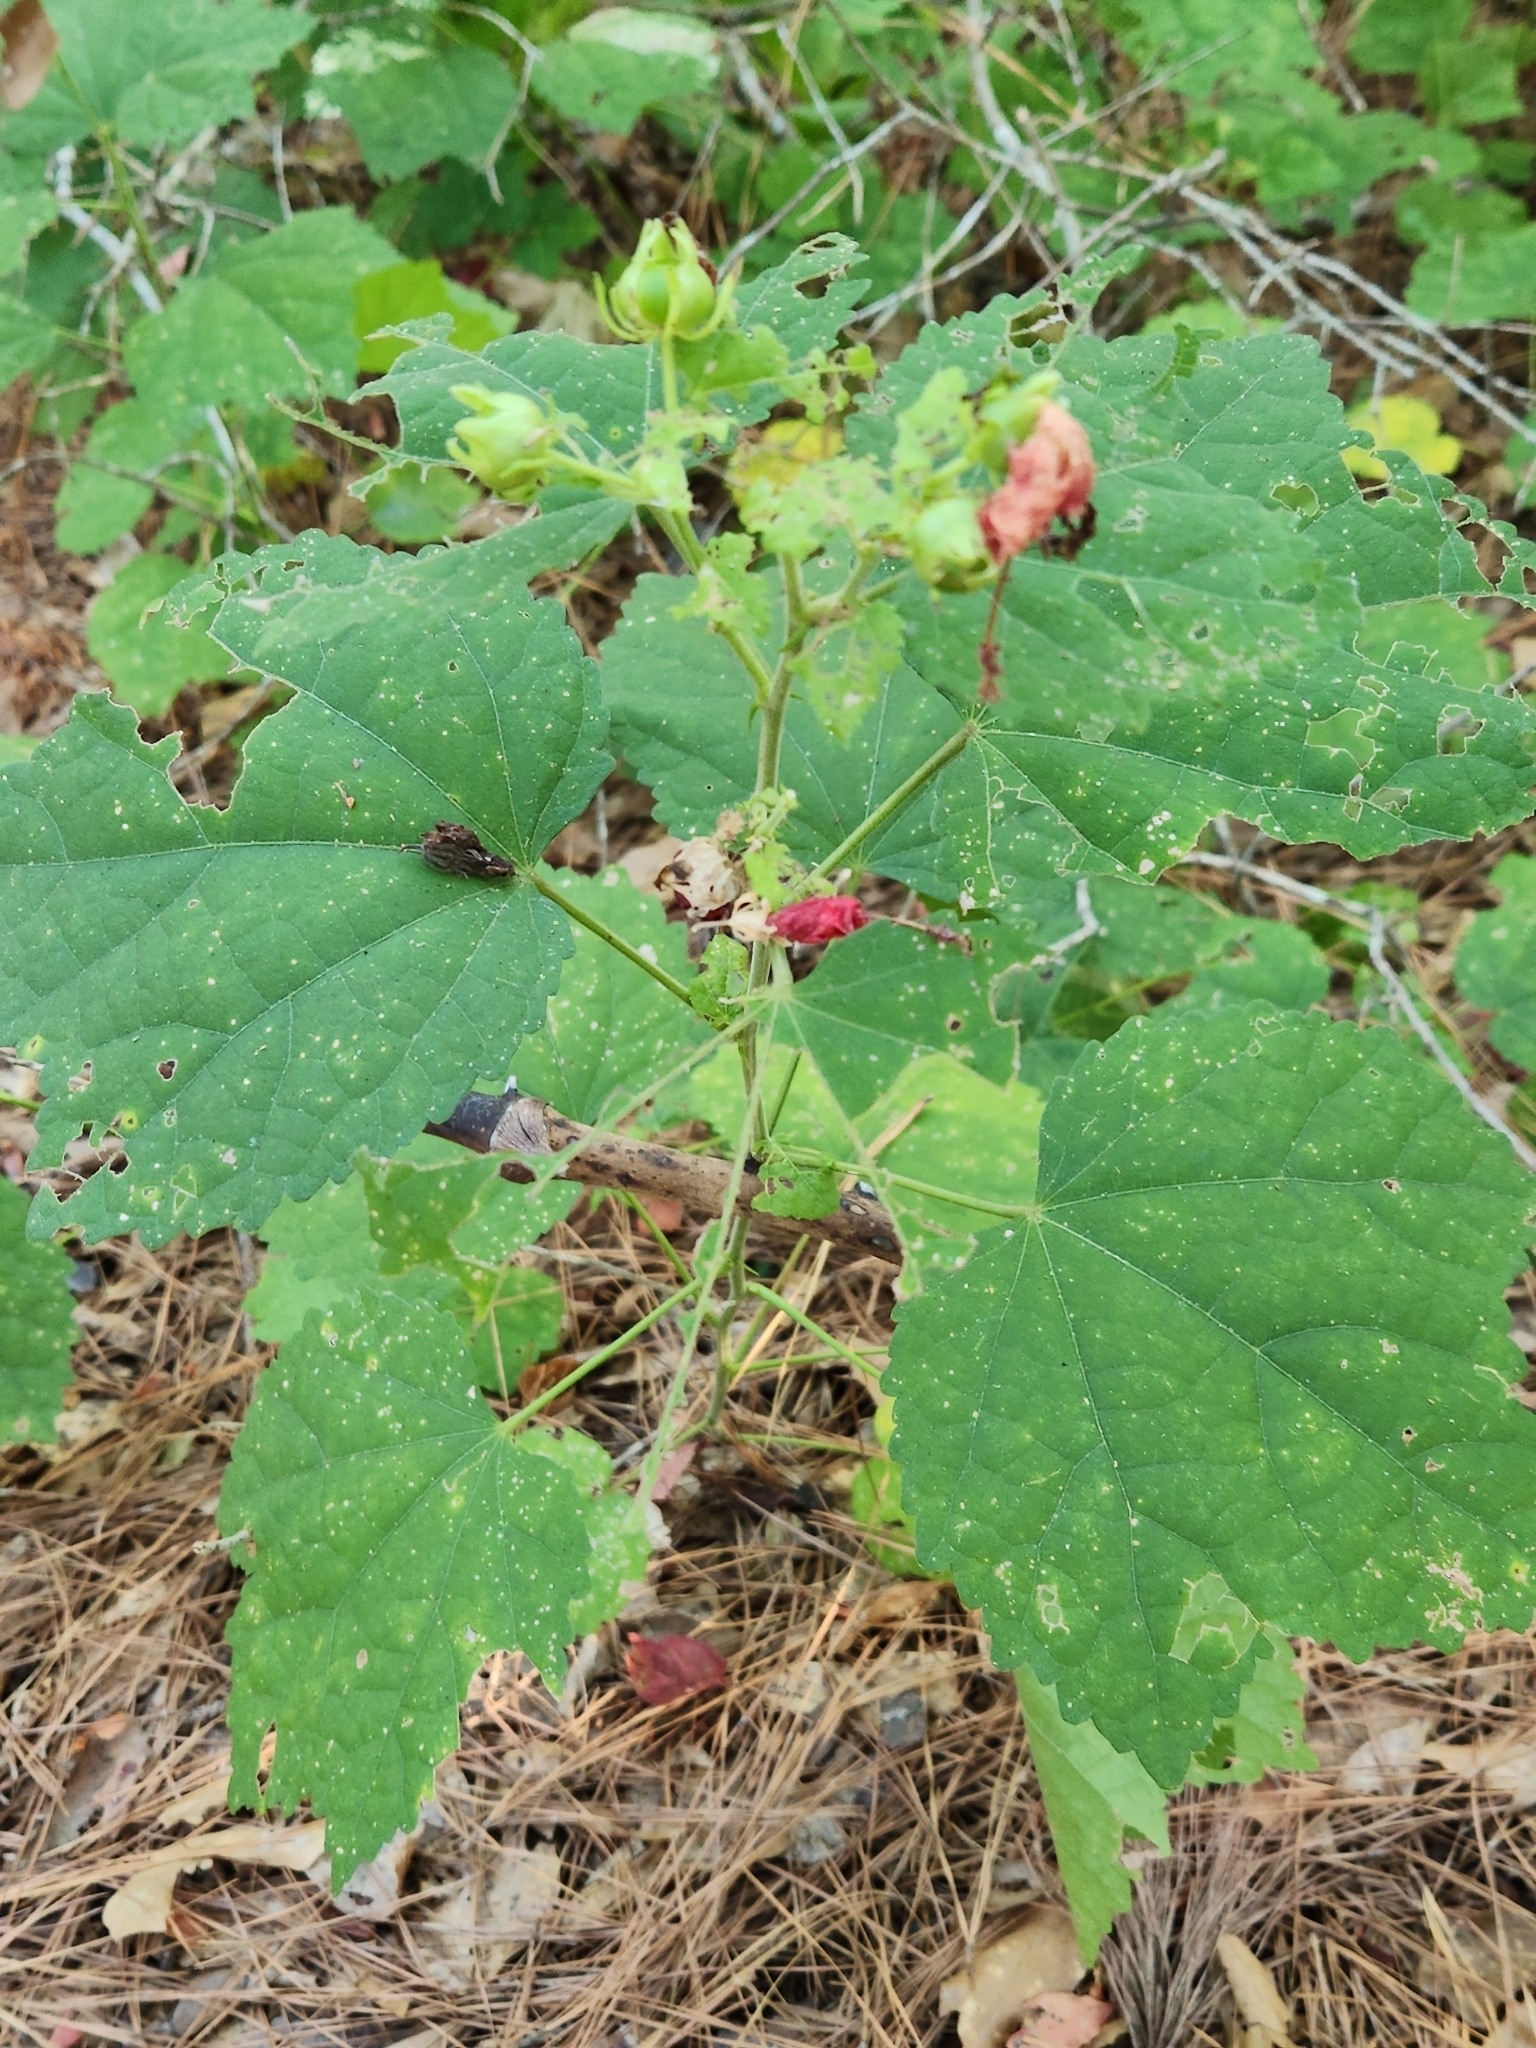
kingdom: Plantae
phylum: Tracheophyta
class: Magnoliopsida
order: Malvales
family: Malvaceae
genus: Malvaviscus
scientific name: Malvaviscus arboreus
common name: Wax mallow
